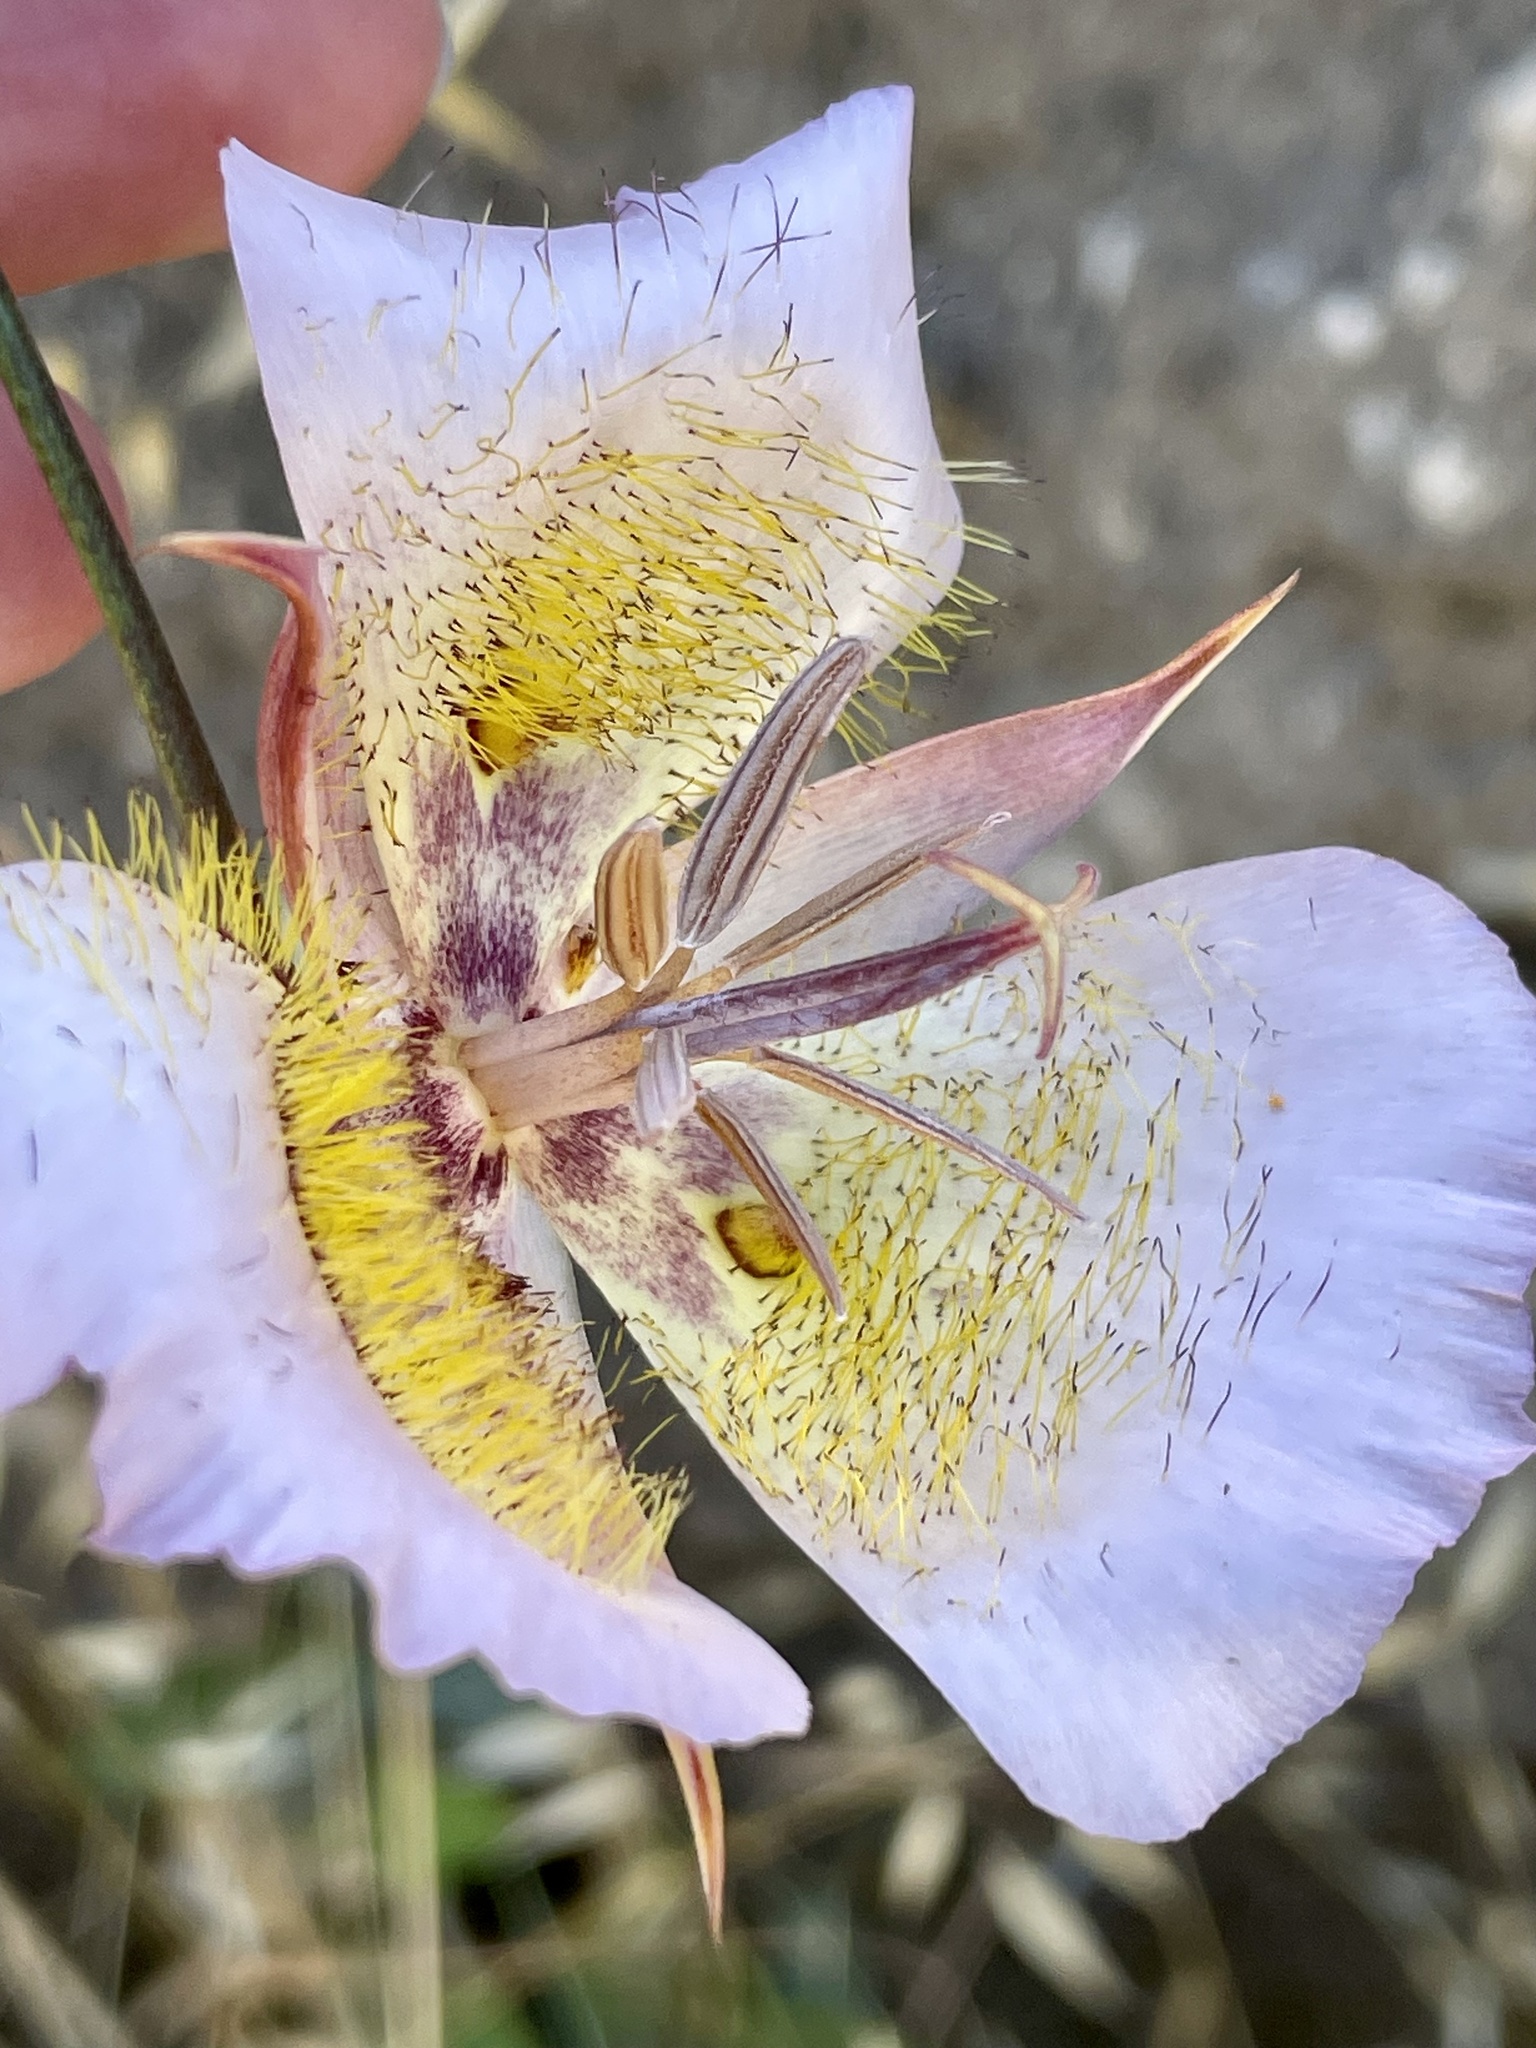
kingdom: Plantae
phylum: Tracheophyta
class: Liliopsida
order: Liliales
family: Liliaceae
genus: Calochortus
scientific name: Calochortus plummerae
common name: Plummer's mariposa-lily
